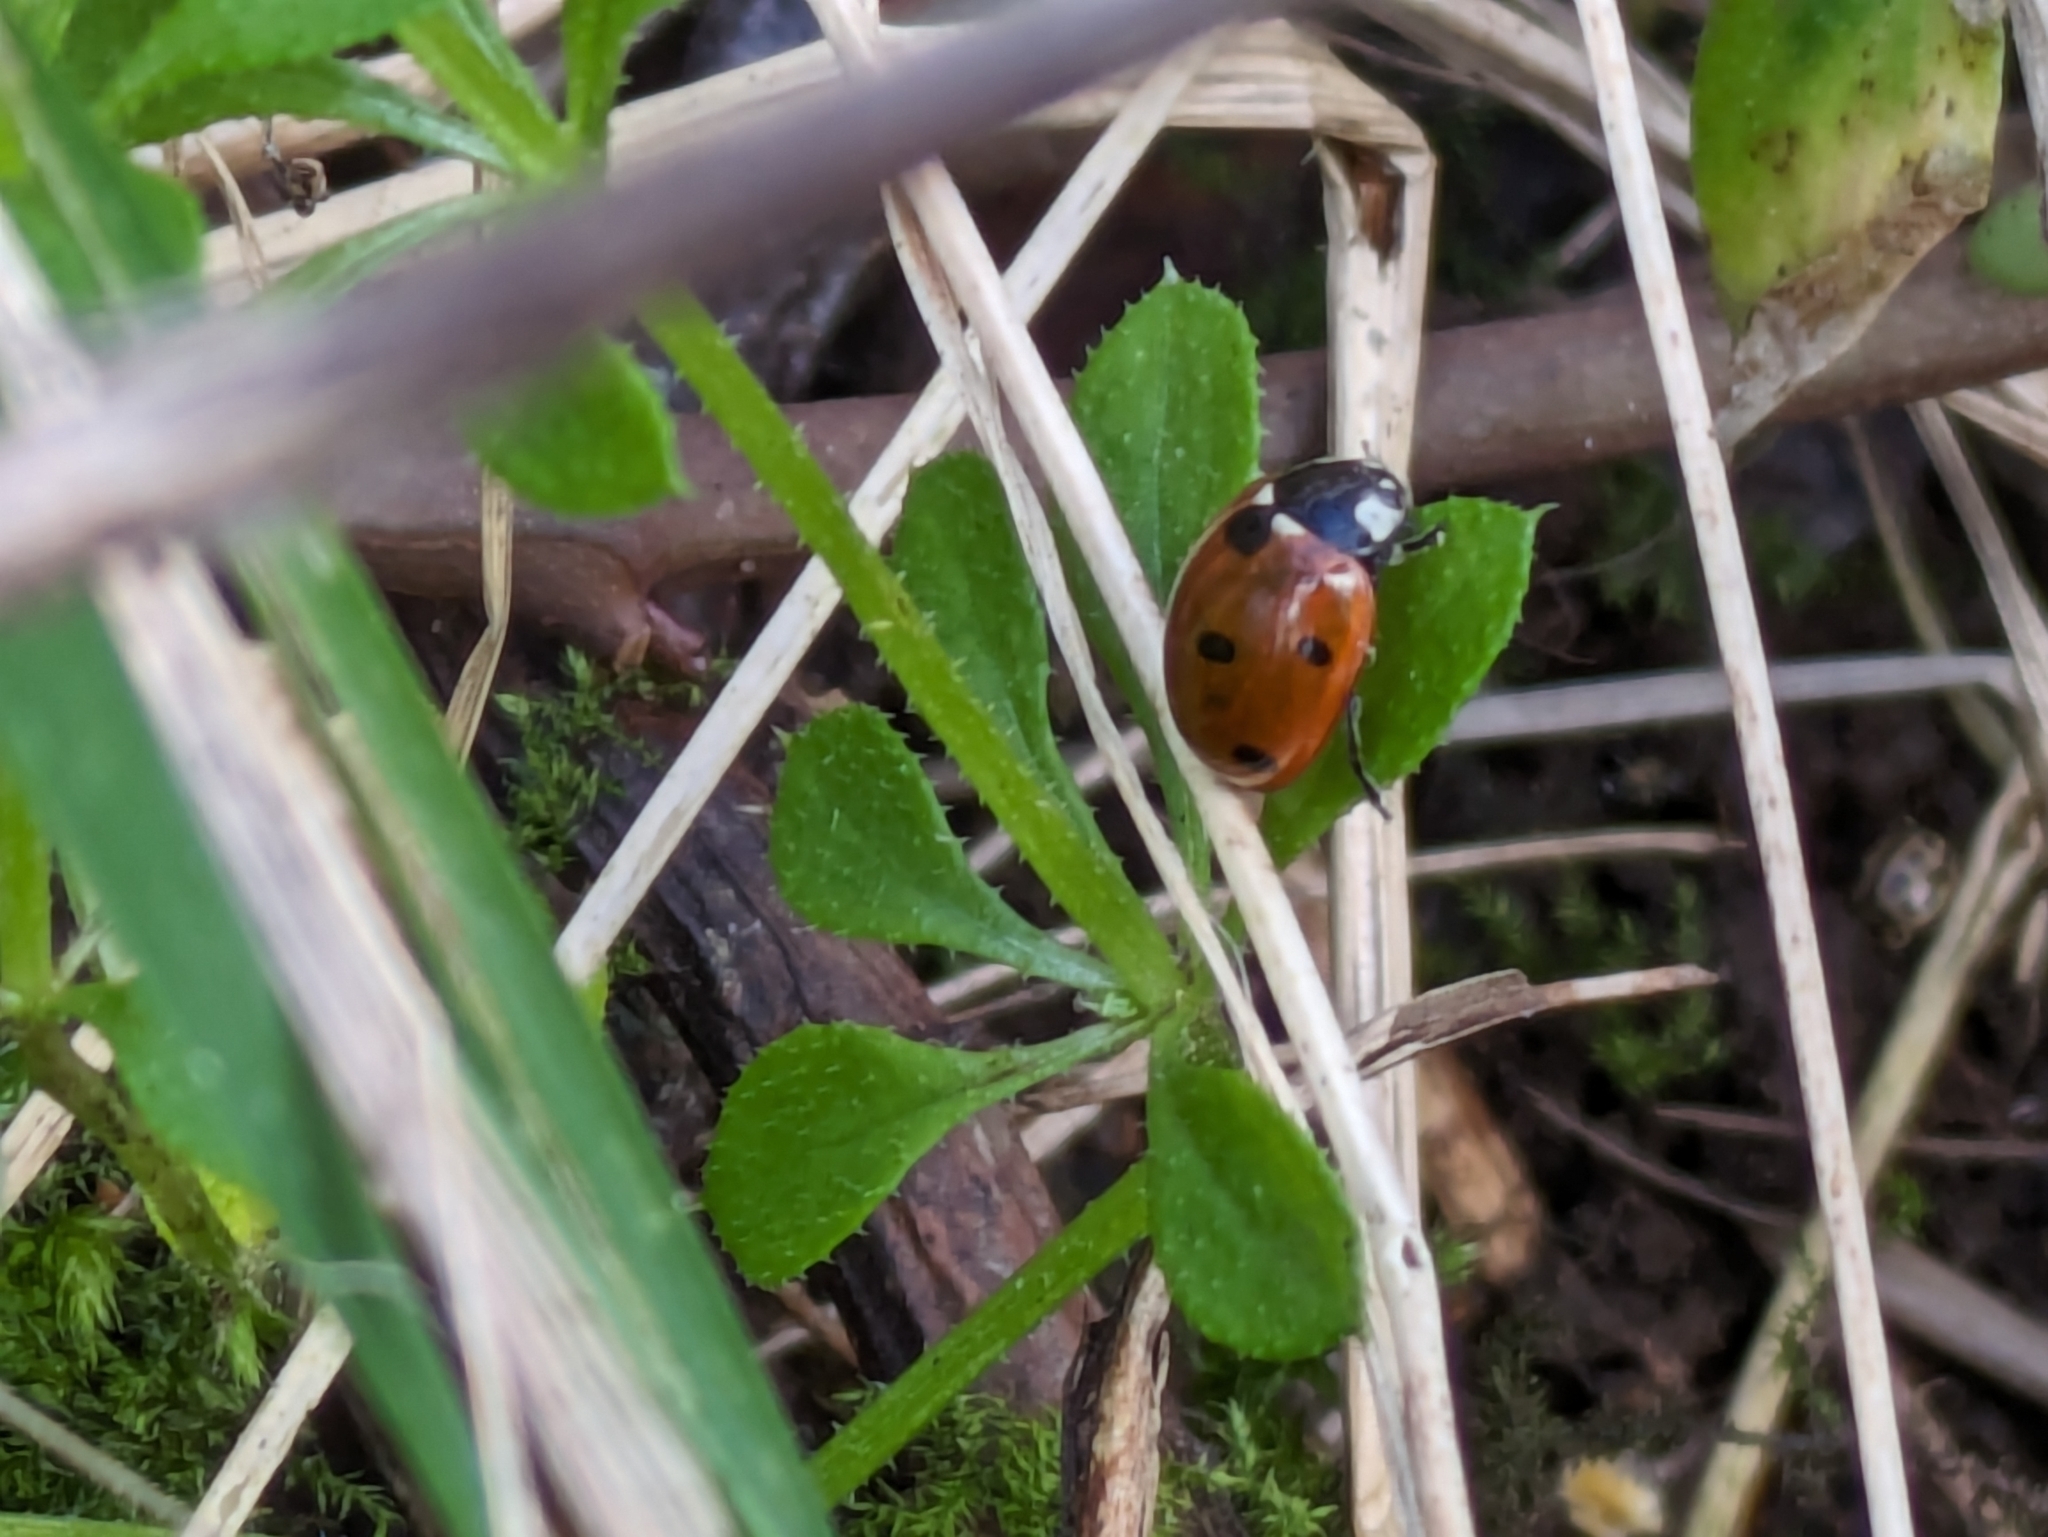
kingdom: Animalia
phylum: Arthropoda
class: Insecta
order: Coleoptera
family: Coccinellidae
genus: Coccinella
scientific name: Coccinella septempunctata
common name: Sevenspotted lady beetle
